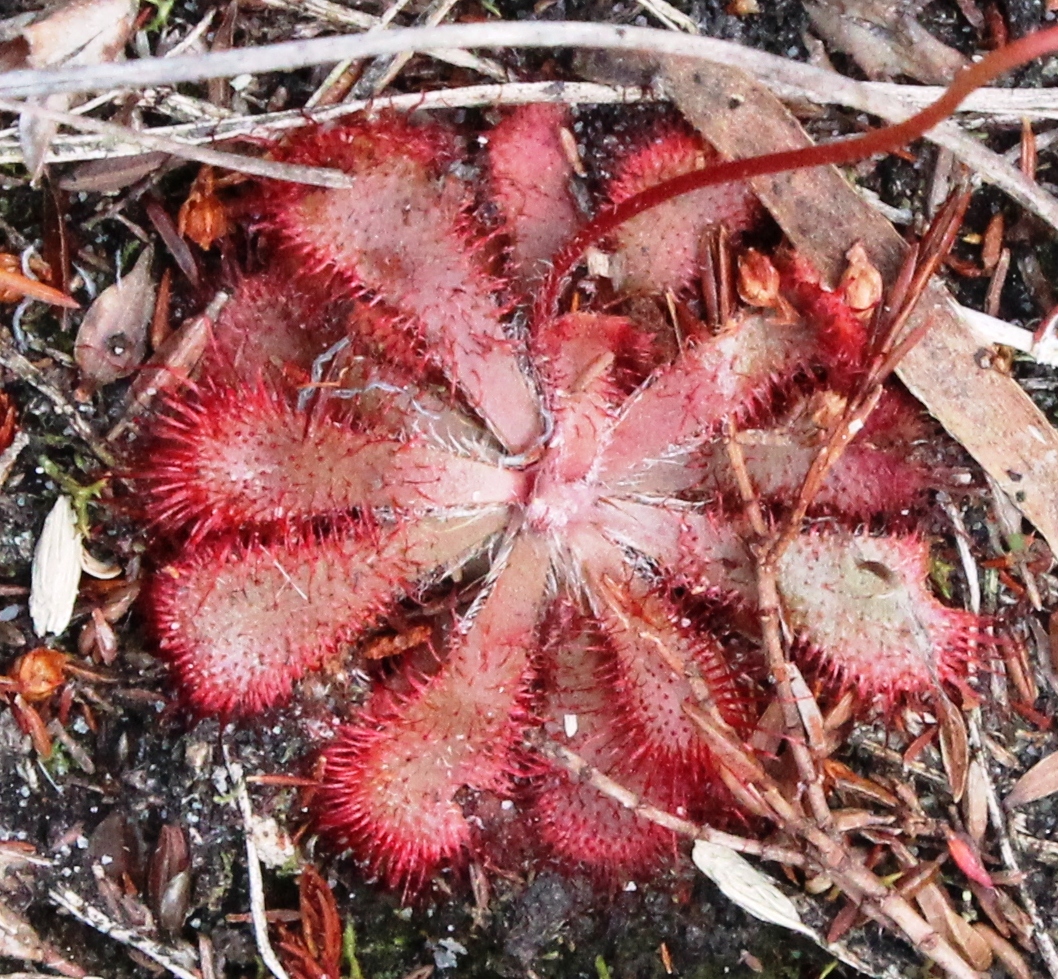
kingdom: Plantae
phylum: Tracheophyta
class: Magnoliopsida
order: Caryophyllales
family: Droseraceae
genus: Drosera
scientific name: Drosera aliciae
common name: Alice sundew
